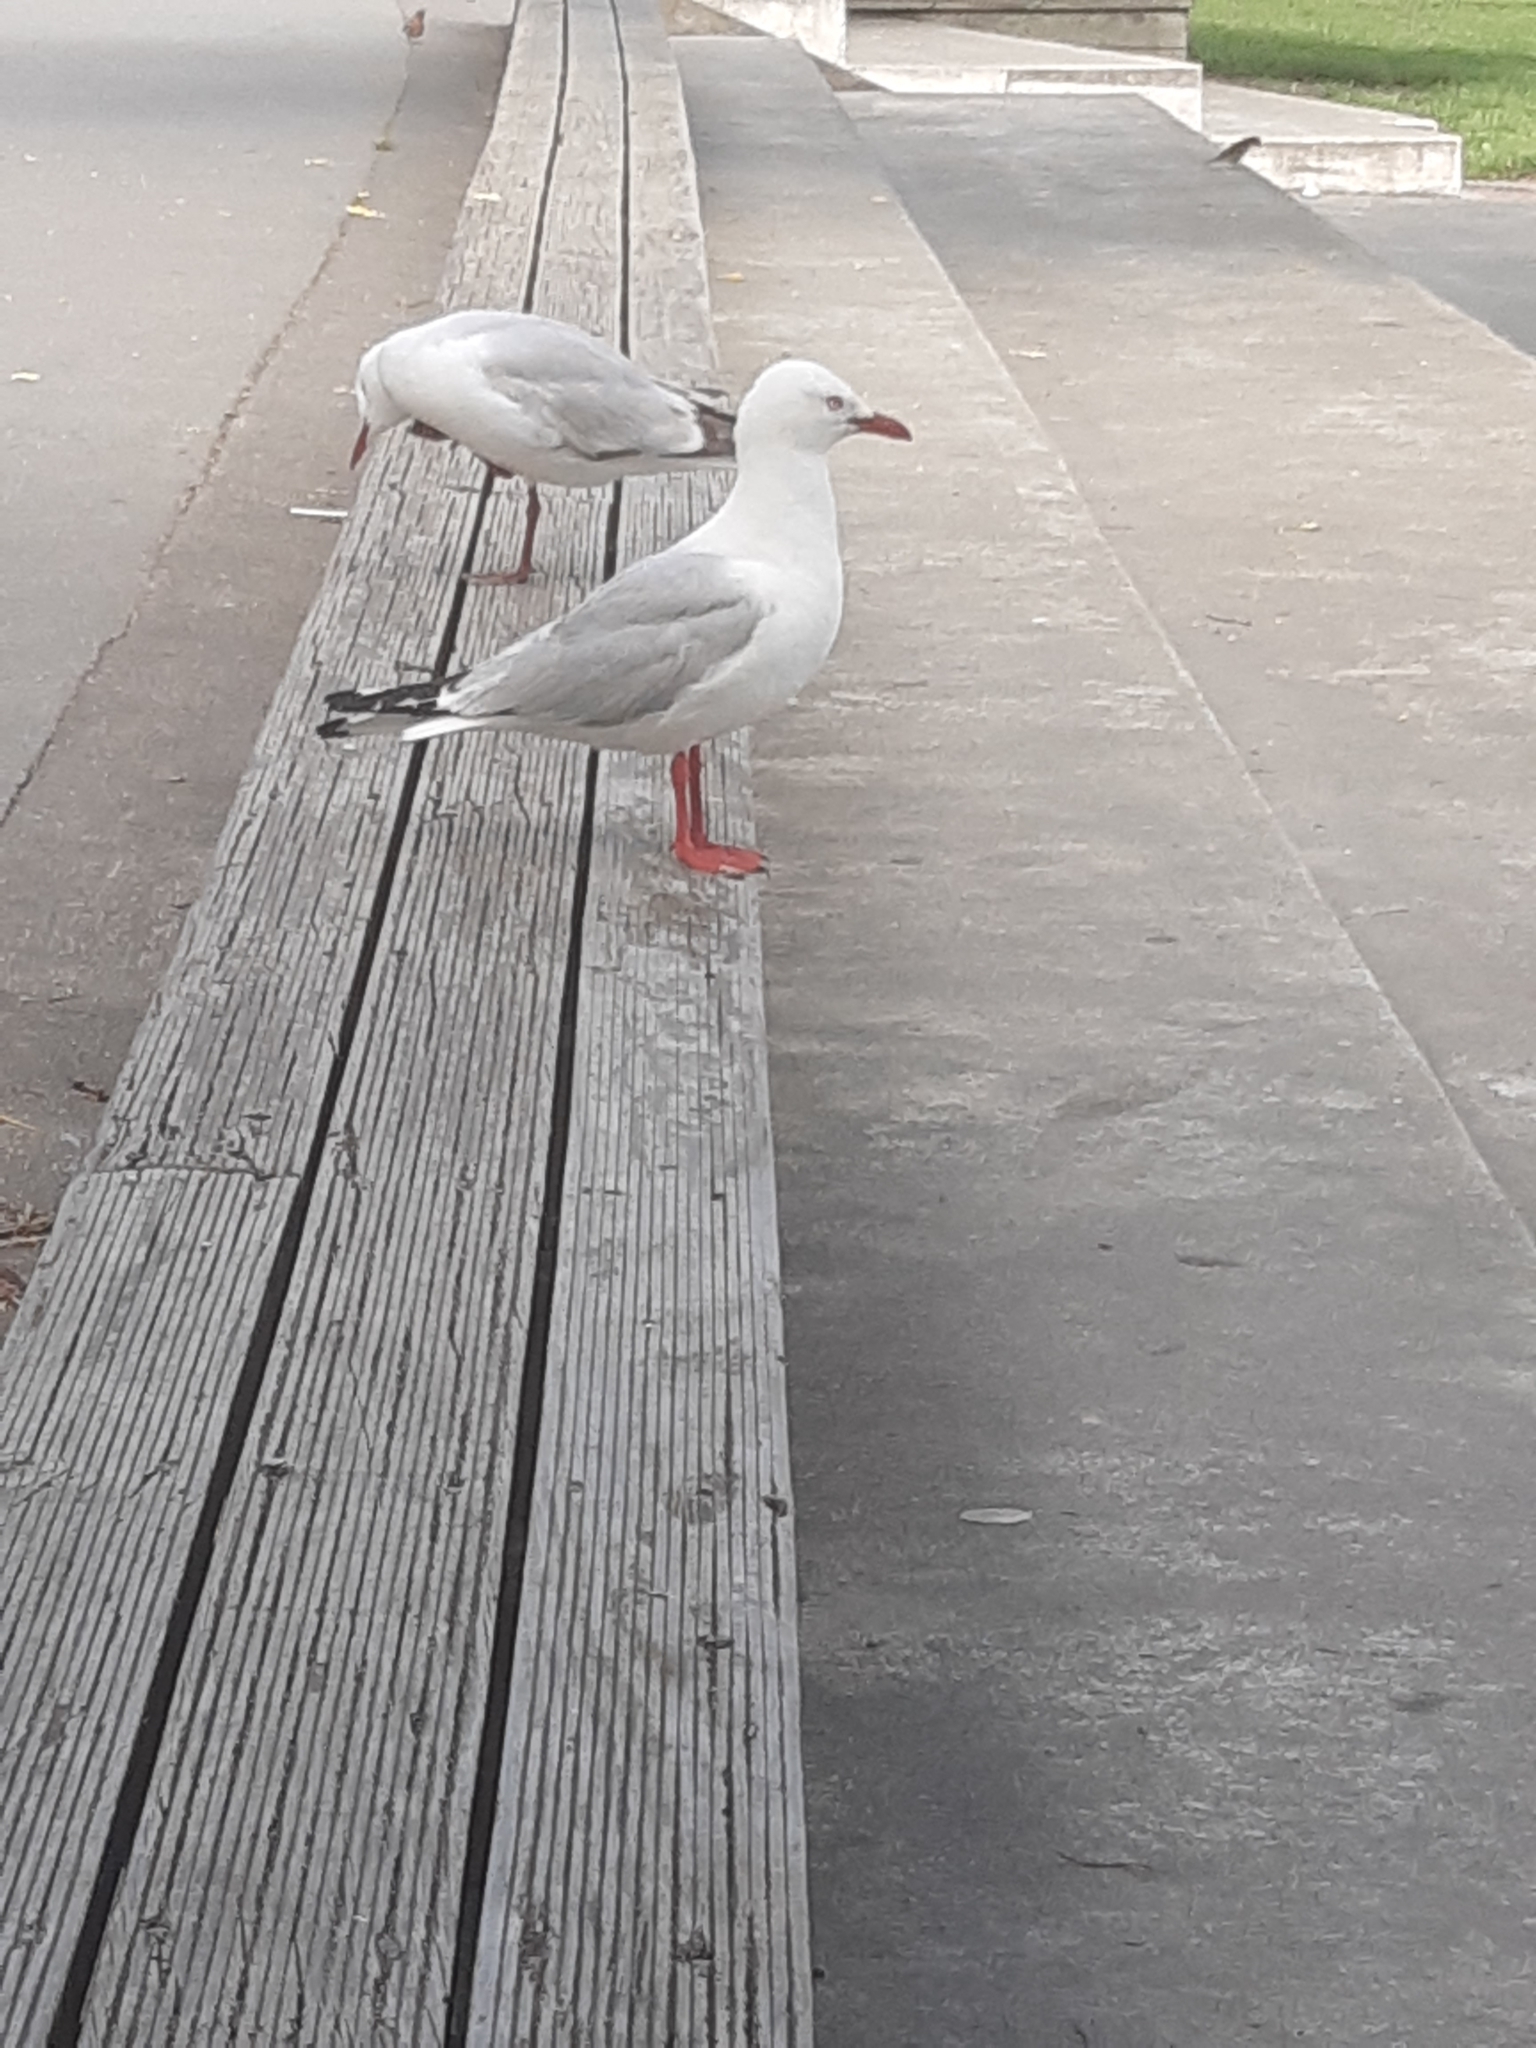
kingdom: Animalia
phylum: Chordata
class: Aves
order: Charadriiformes
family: Laridae
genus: Chroicocephalus
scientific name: Chroicocephalus novaehollandiae
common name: Silver gull
